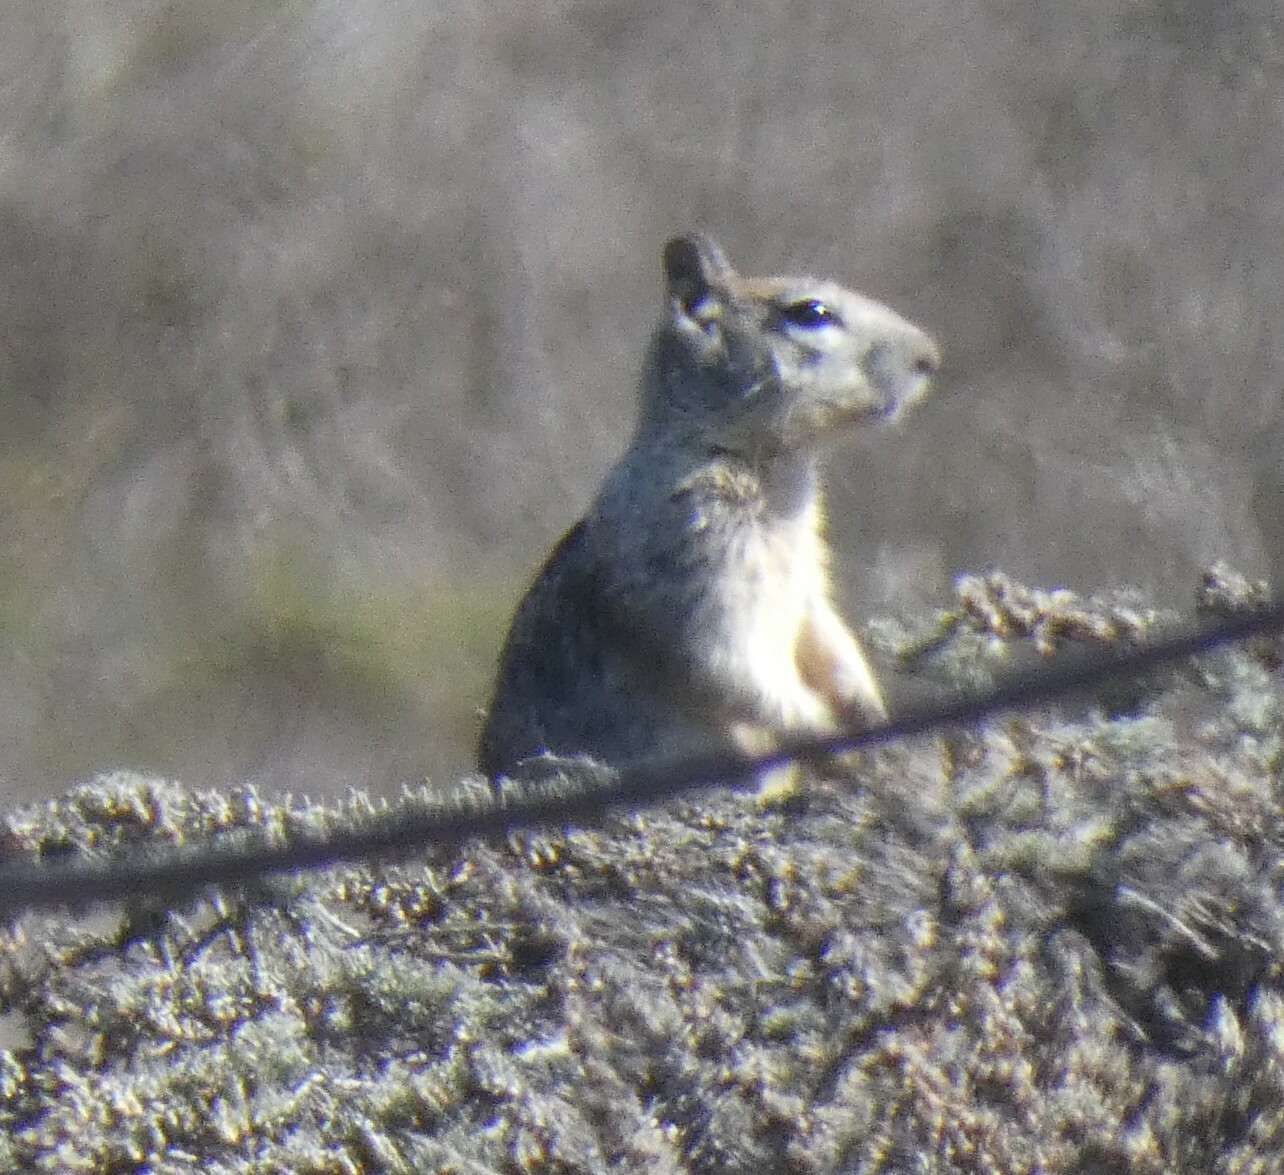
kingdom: Animalia
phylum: Chordata
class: Mammalia
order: Rodentia
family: Sciuridae
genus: Otospermophilus
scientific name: Otospermophilus beecheyi
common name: California ground squirrel
